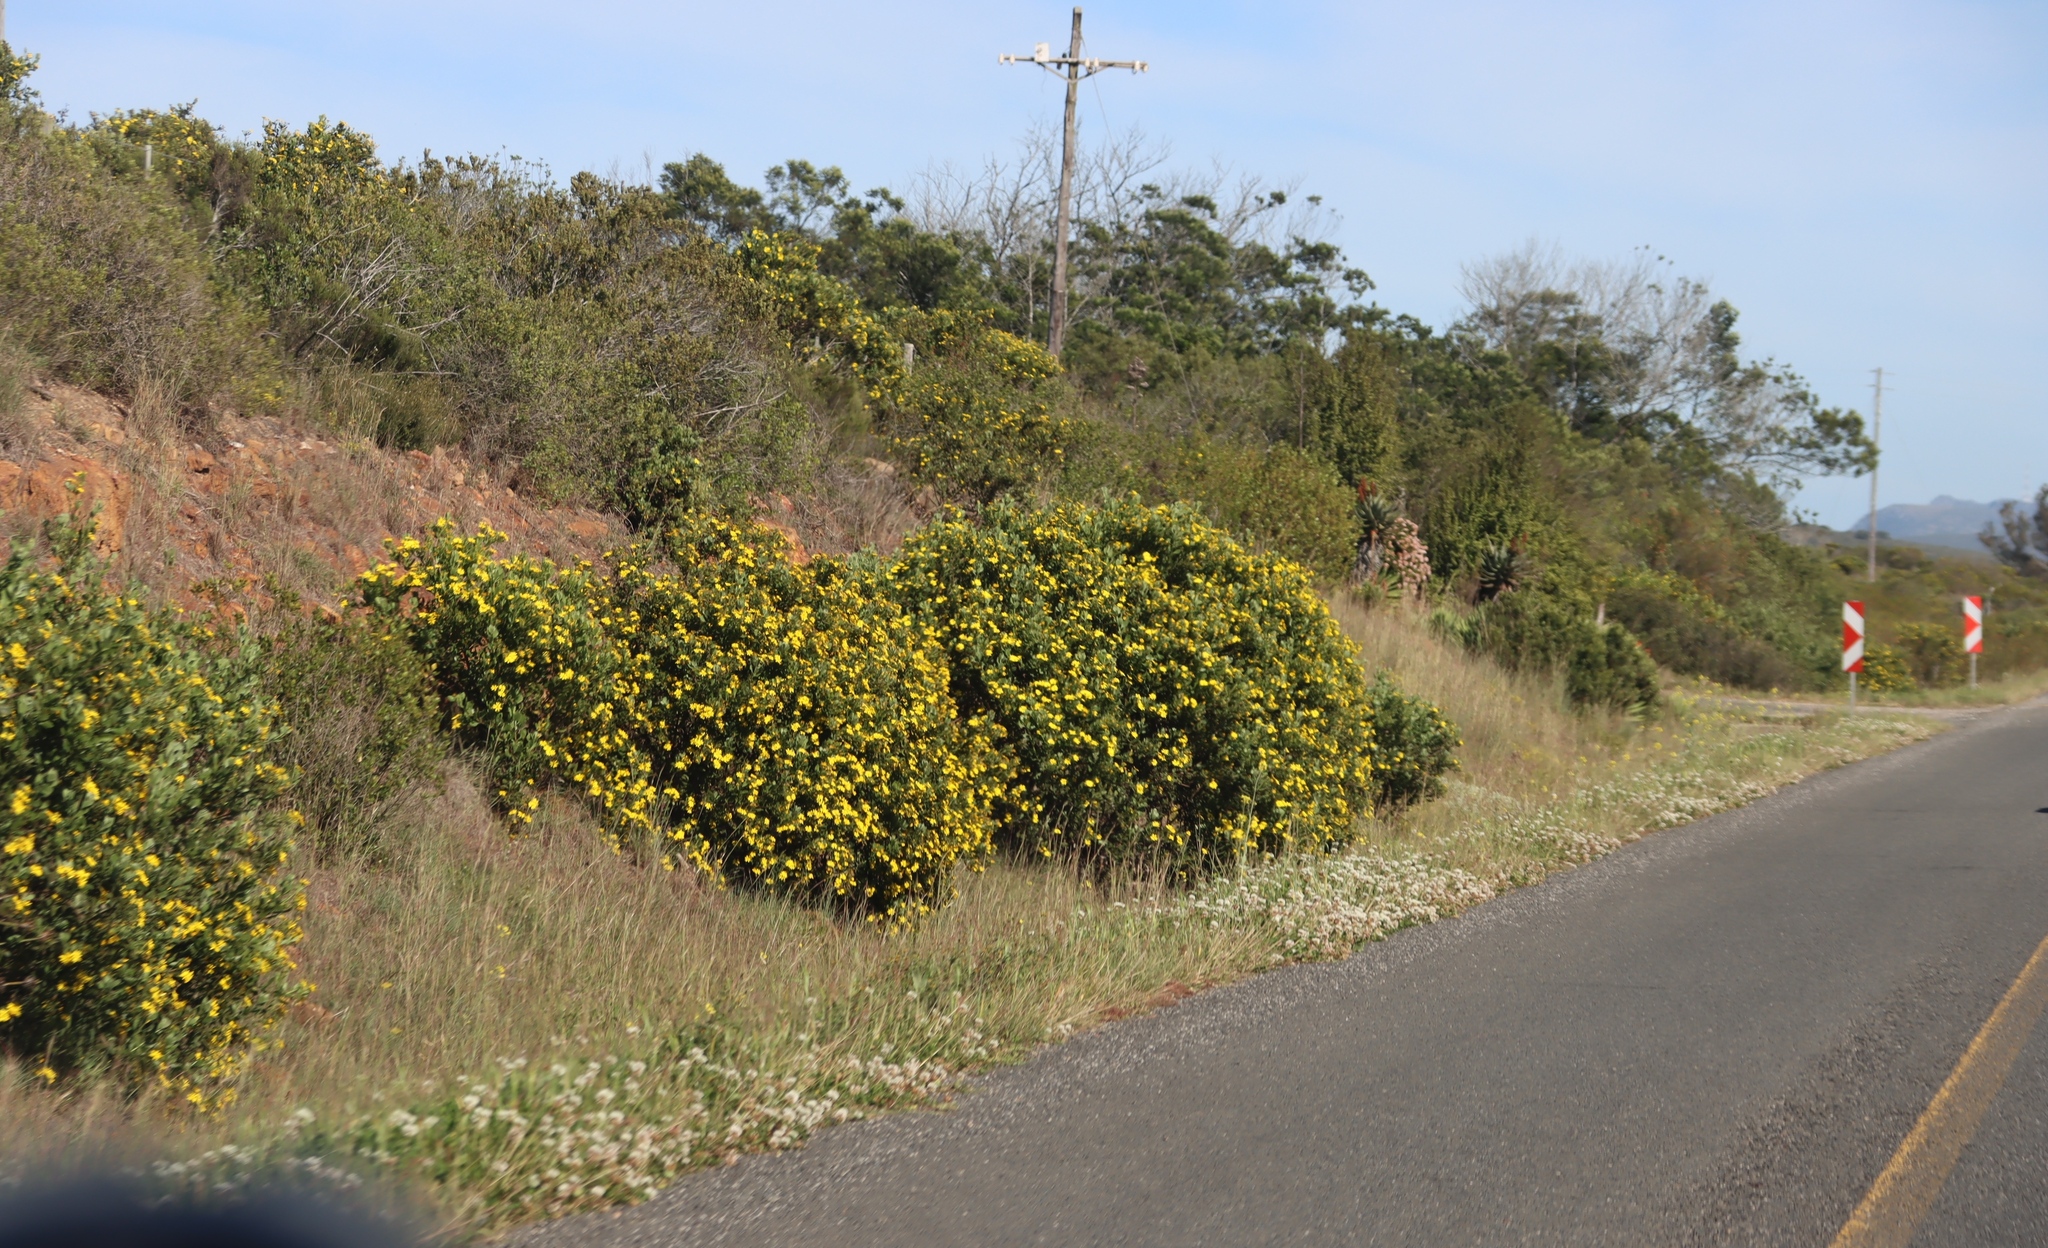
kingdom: Plantae
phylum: Tracheophyta
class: Magnoliopsida
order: Asterales
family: Asteraceae
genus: Osteospermum
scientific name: Osteospermum moniliferum
